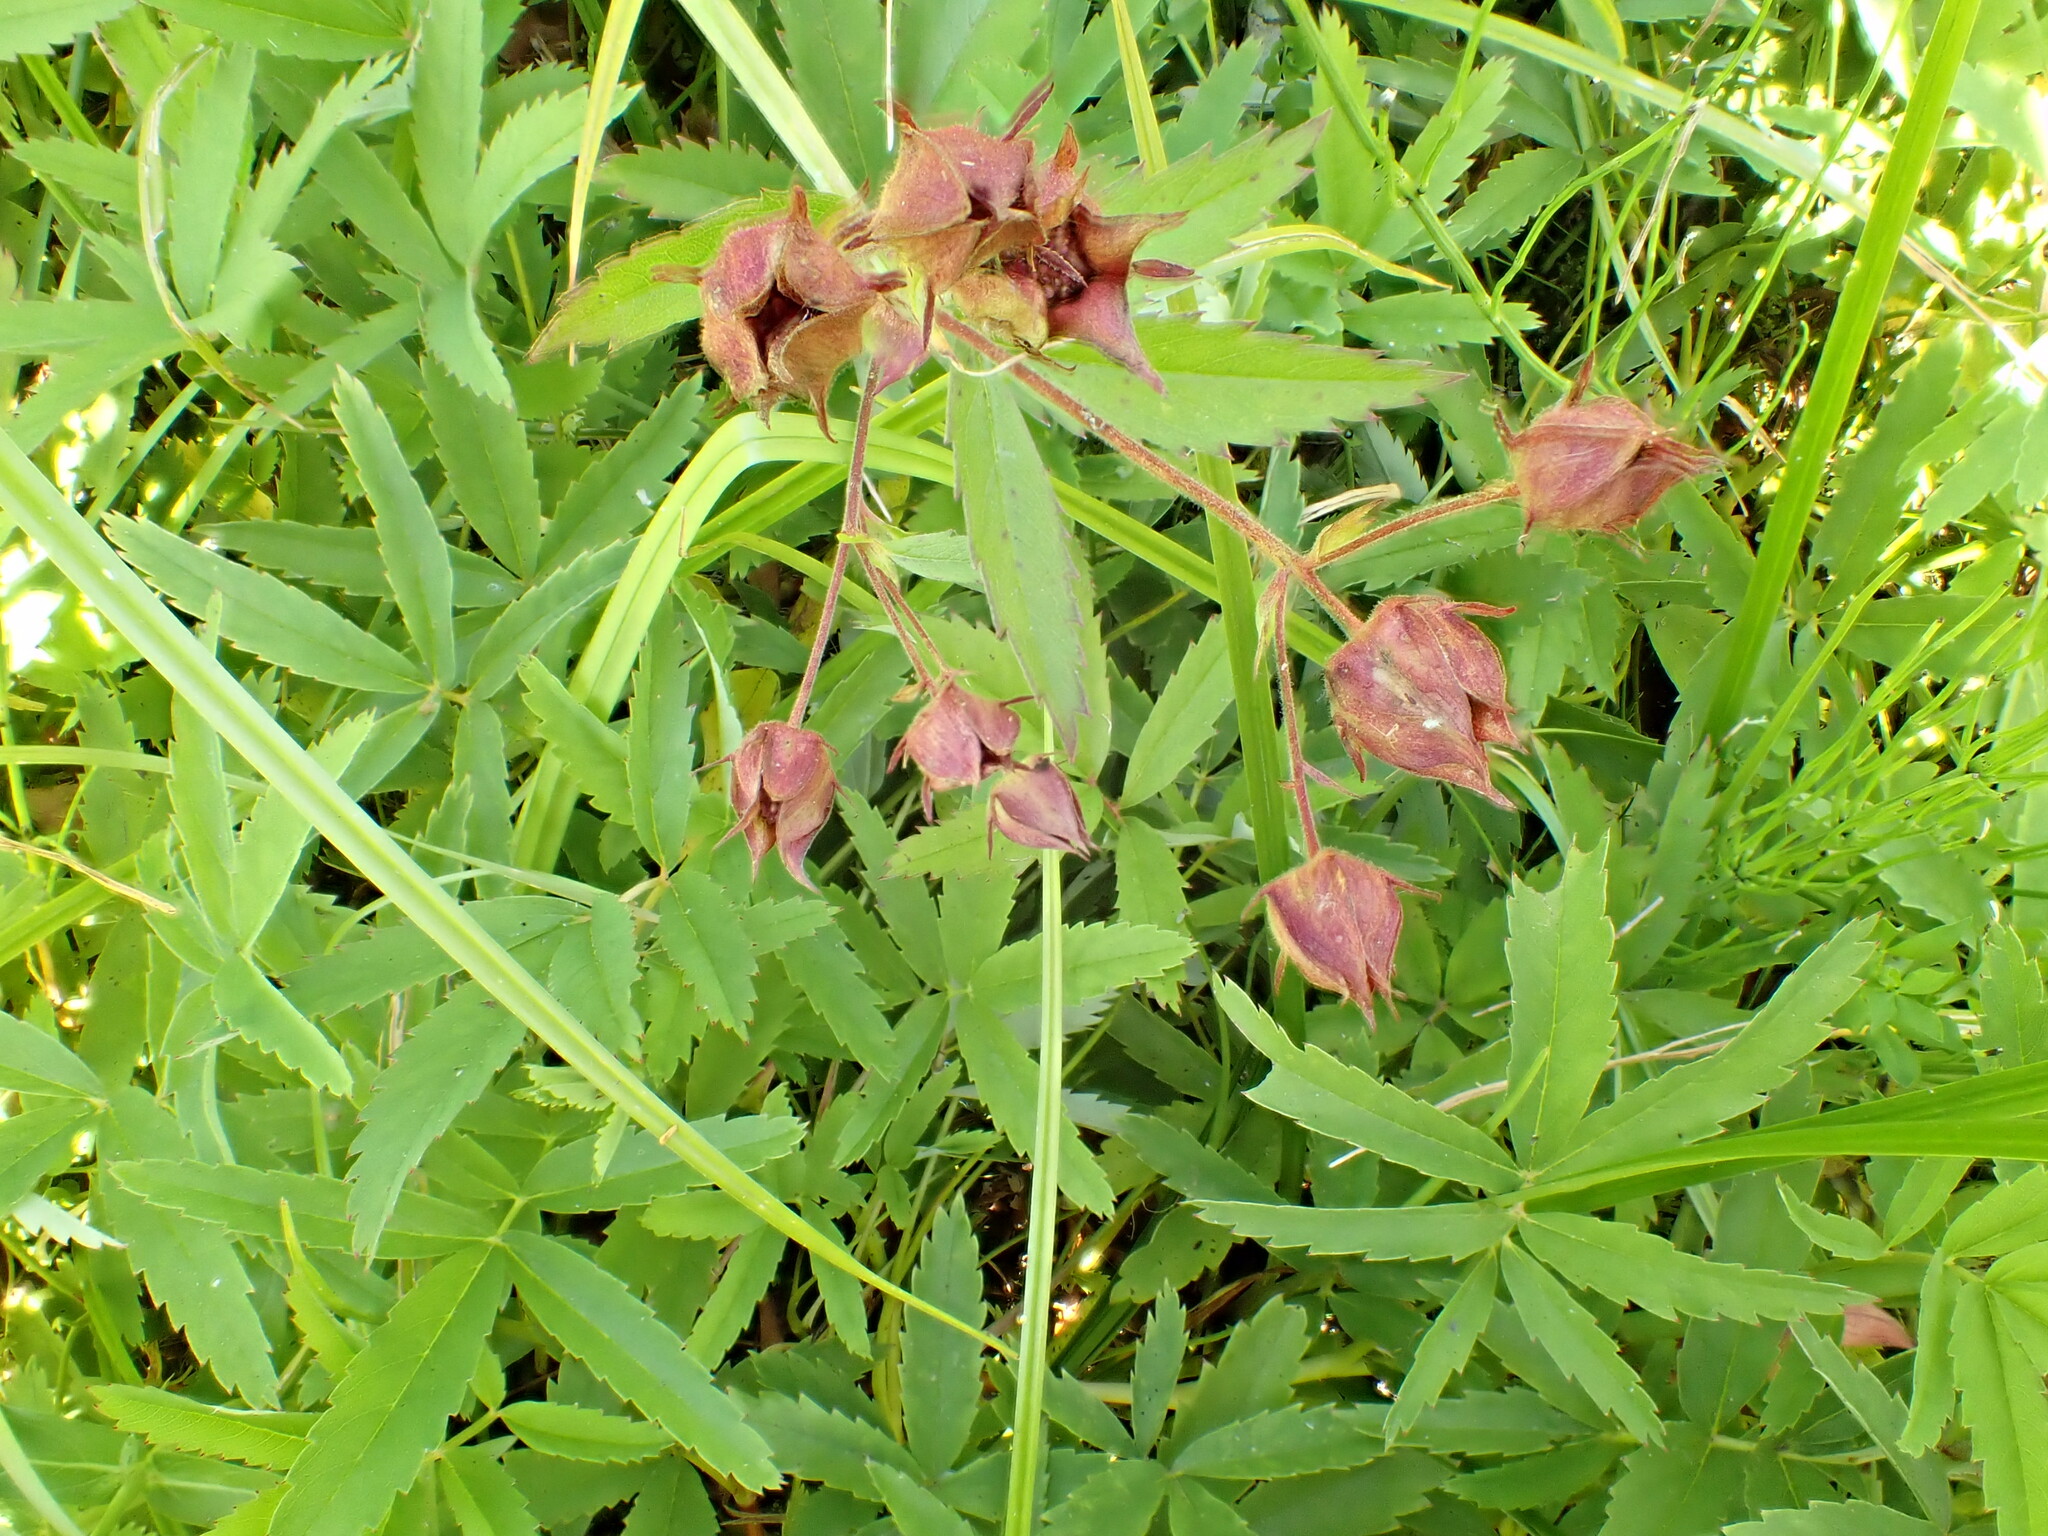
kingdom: Plantae
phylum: Tracheophyta
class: Magnoliopsida
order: Rosales
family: Rosaceae
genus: Comarum
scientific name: Comarum palustre
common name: Marsh cinquefoil
